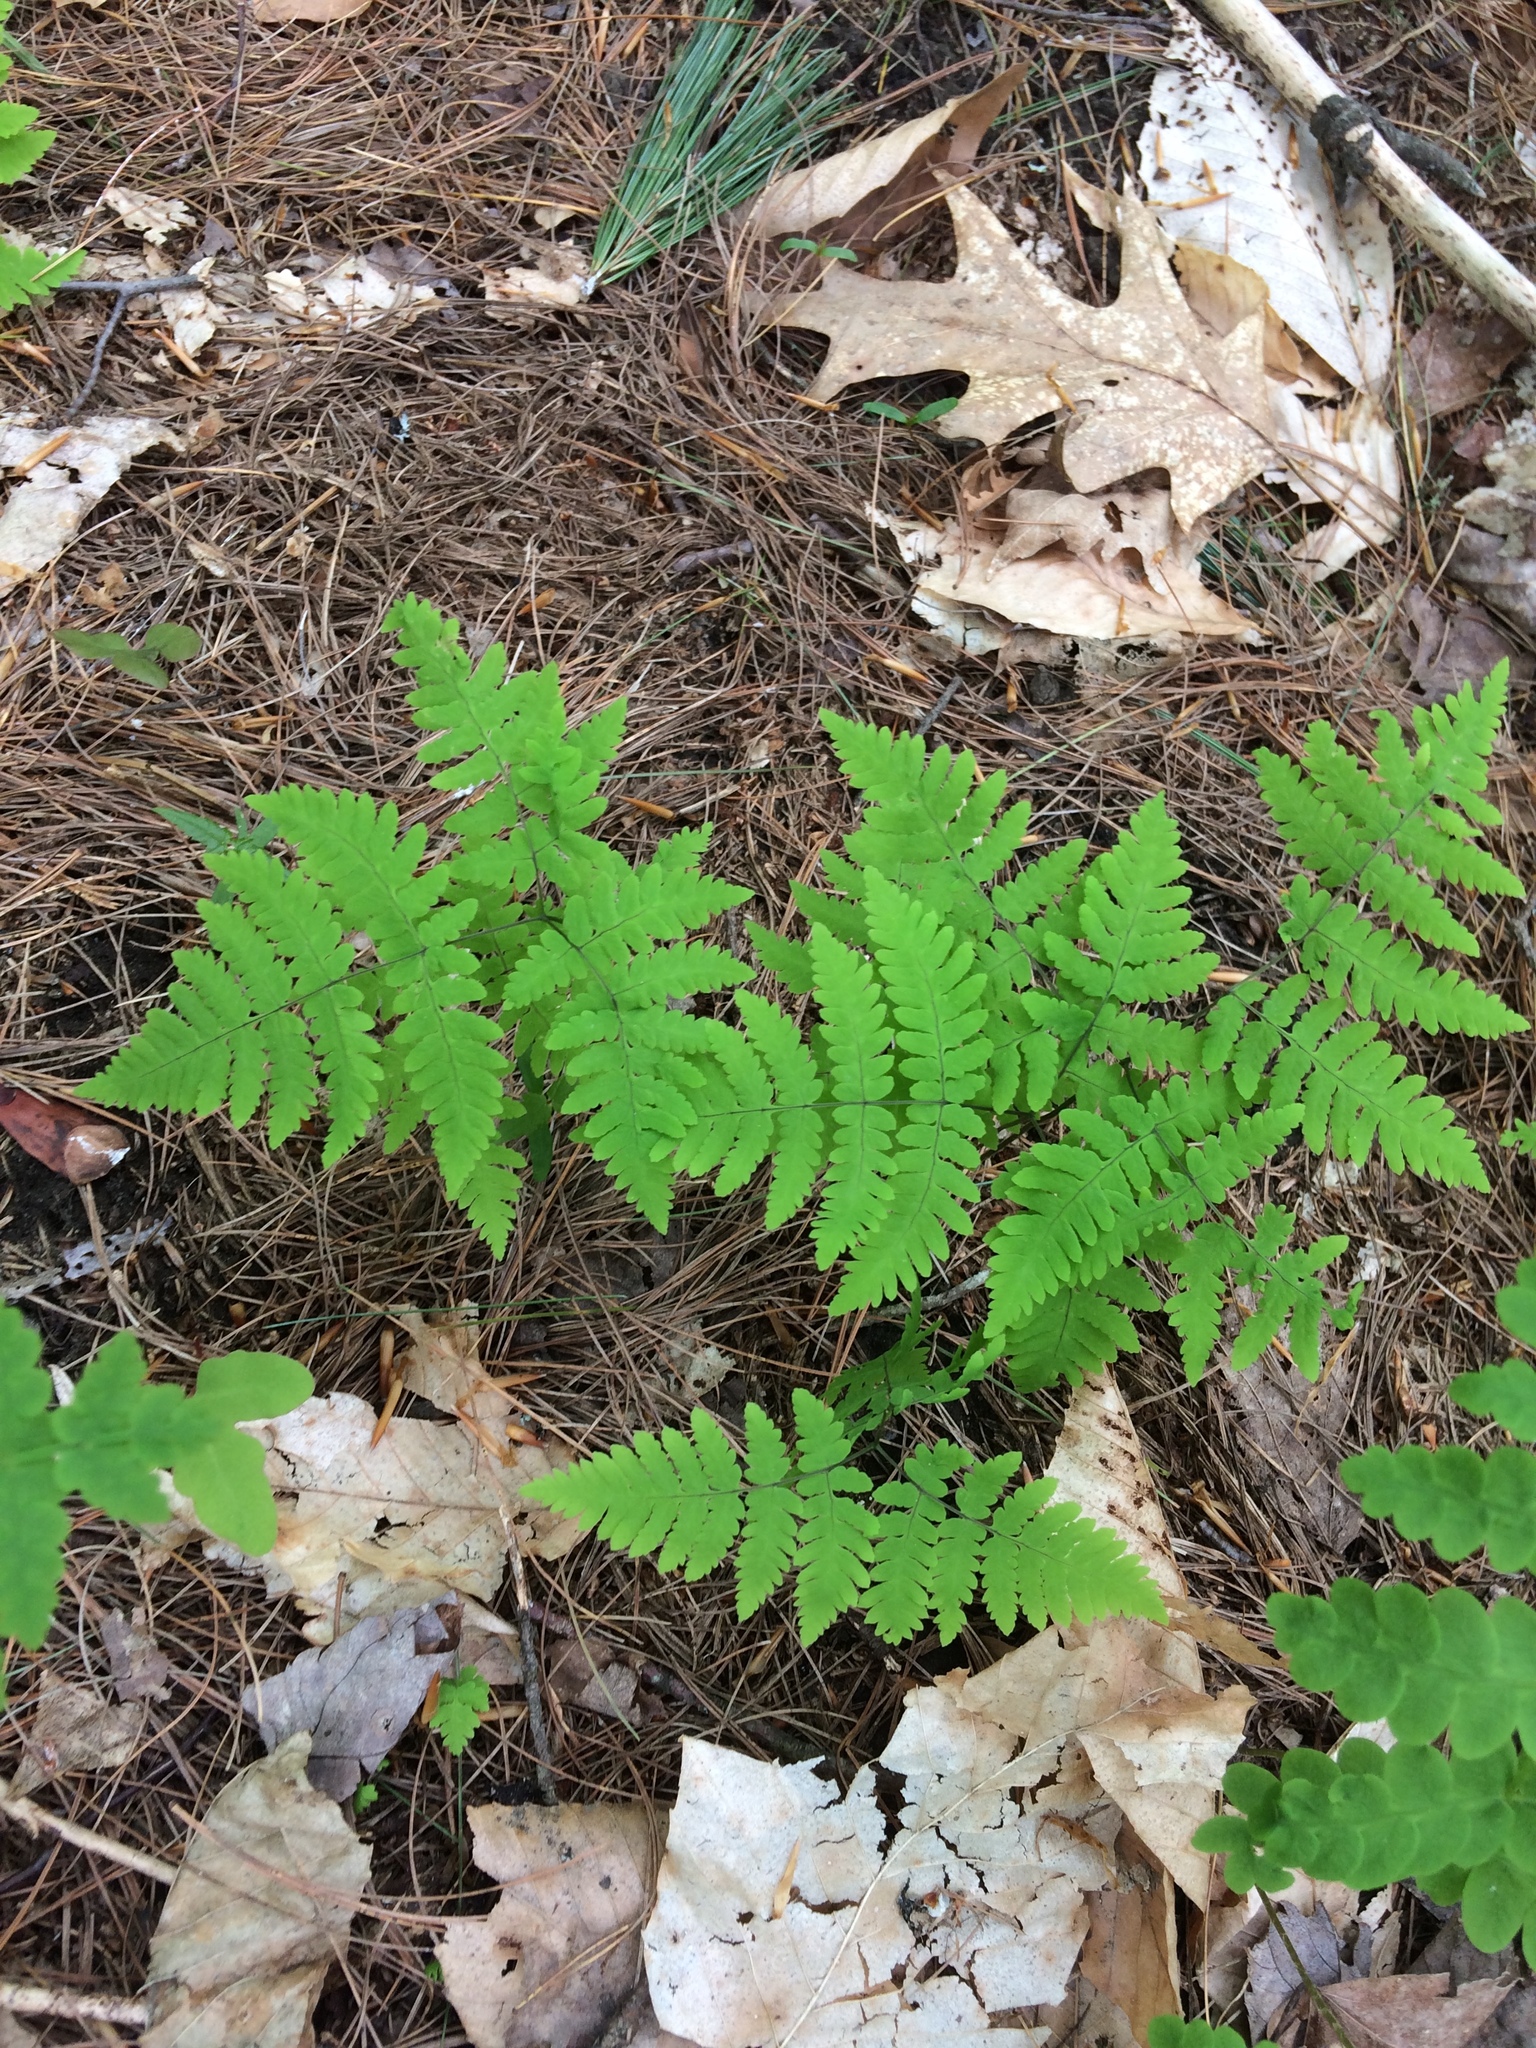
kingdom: Plantae
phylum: Tracheophyta
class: Polypodiopsida
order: Polypodiales
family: Cystopteridaceae
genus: Gymnocarpium
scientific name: Gymnocarpium dryopteris
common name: Oak fern
